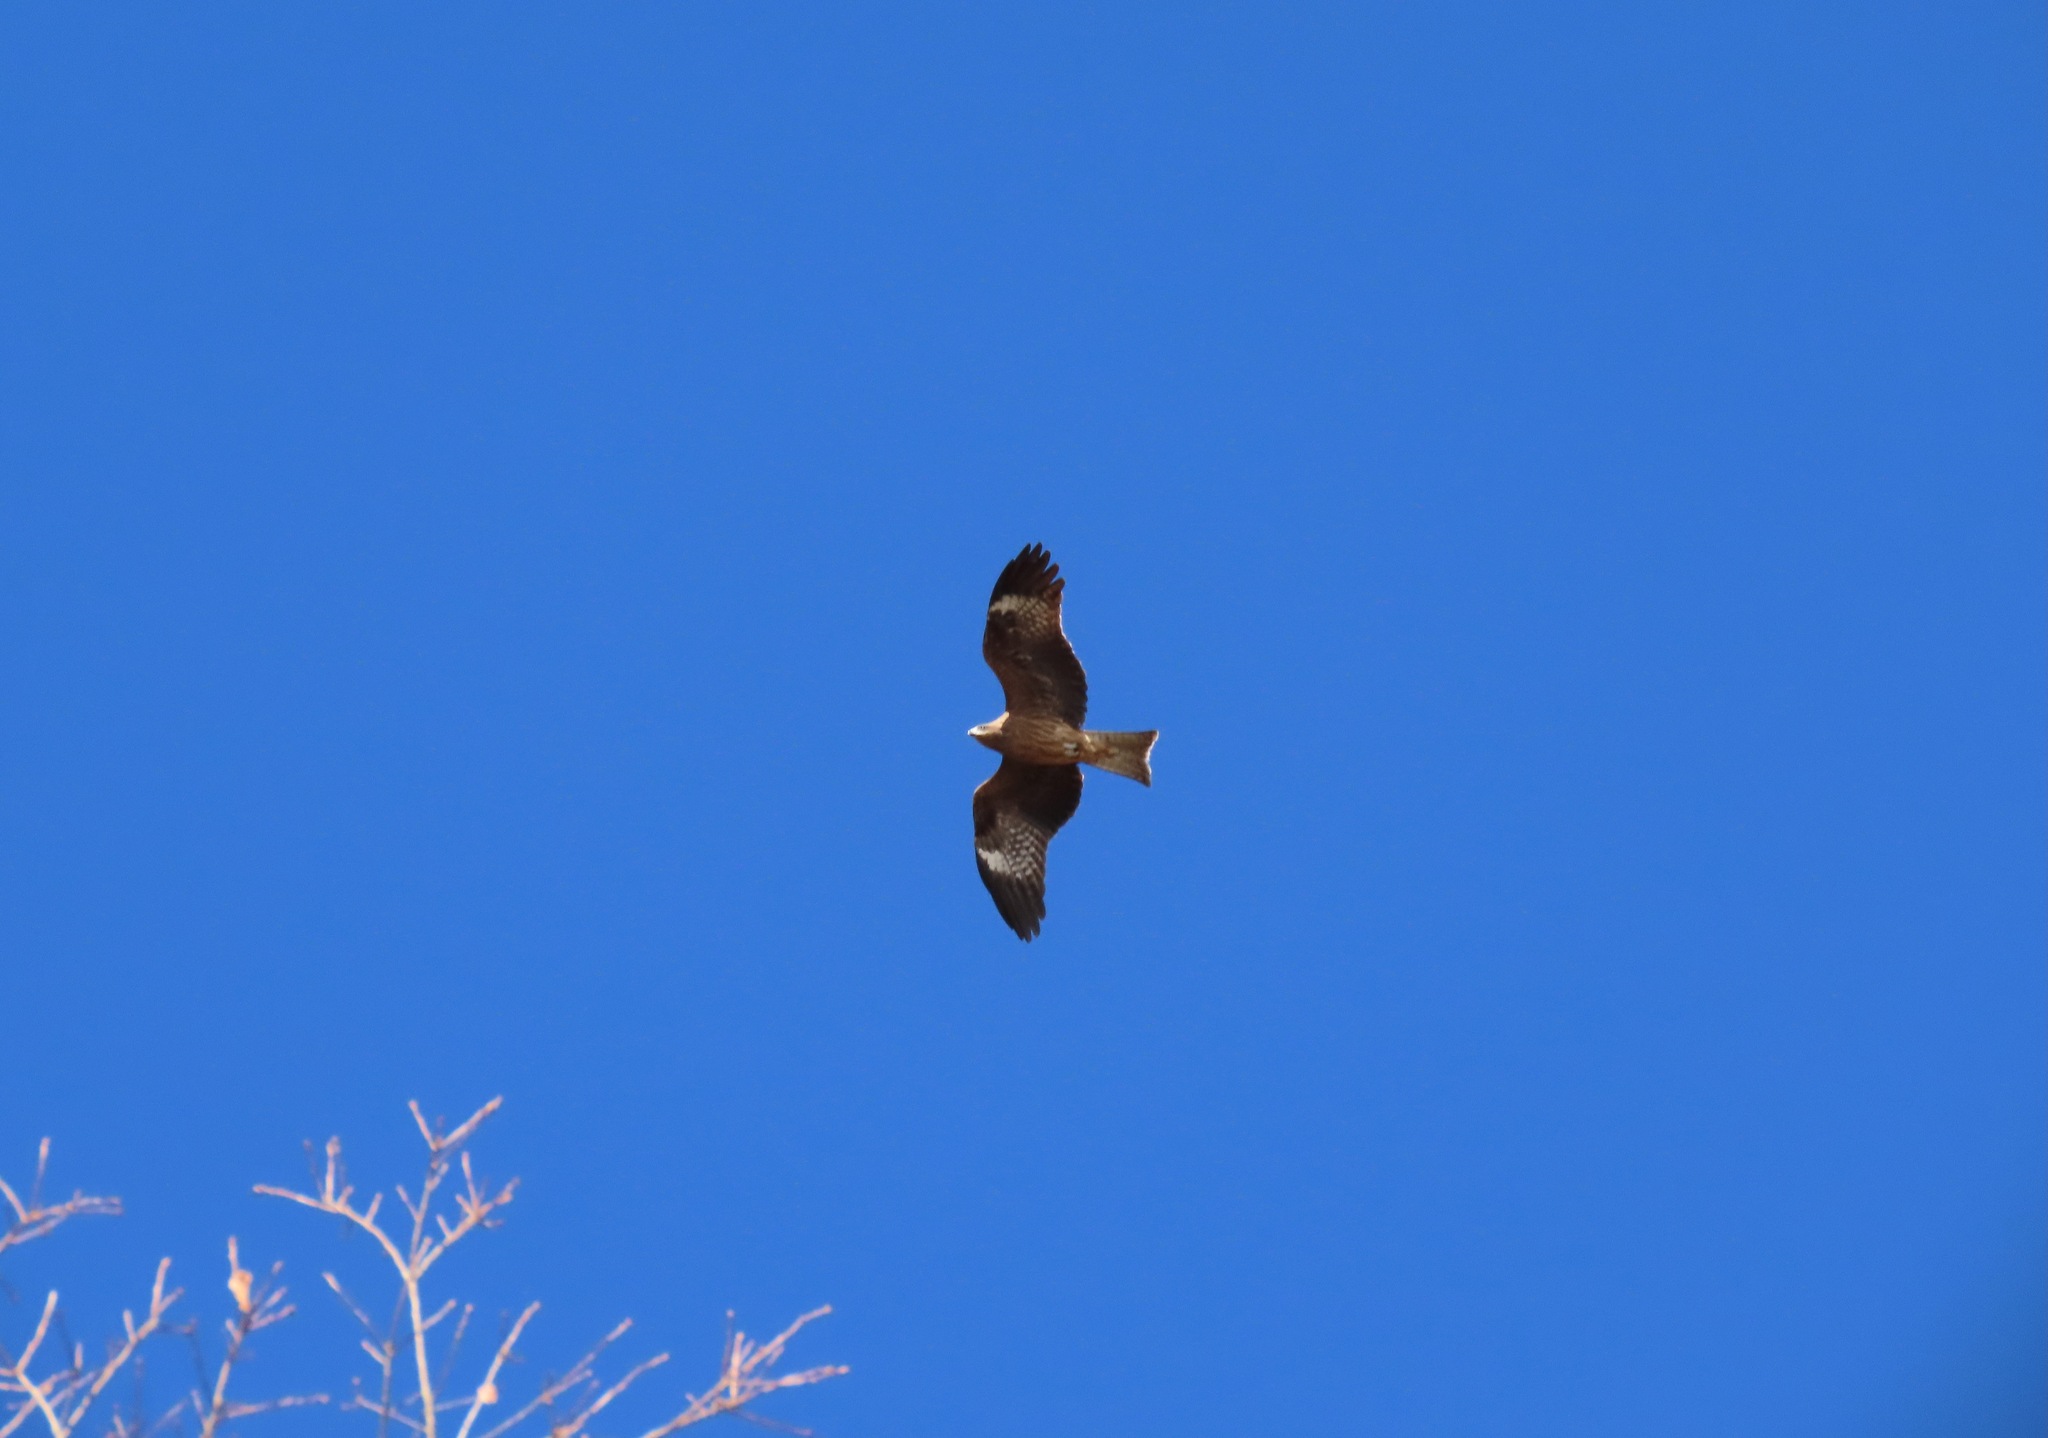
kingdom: Animalia
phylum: Chordata
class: Aves
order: Accipitriformes
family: Accipitridae
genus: Milvus
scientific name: Milvus migrans
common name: Black kite
